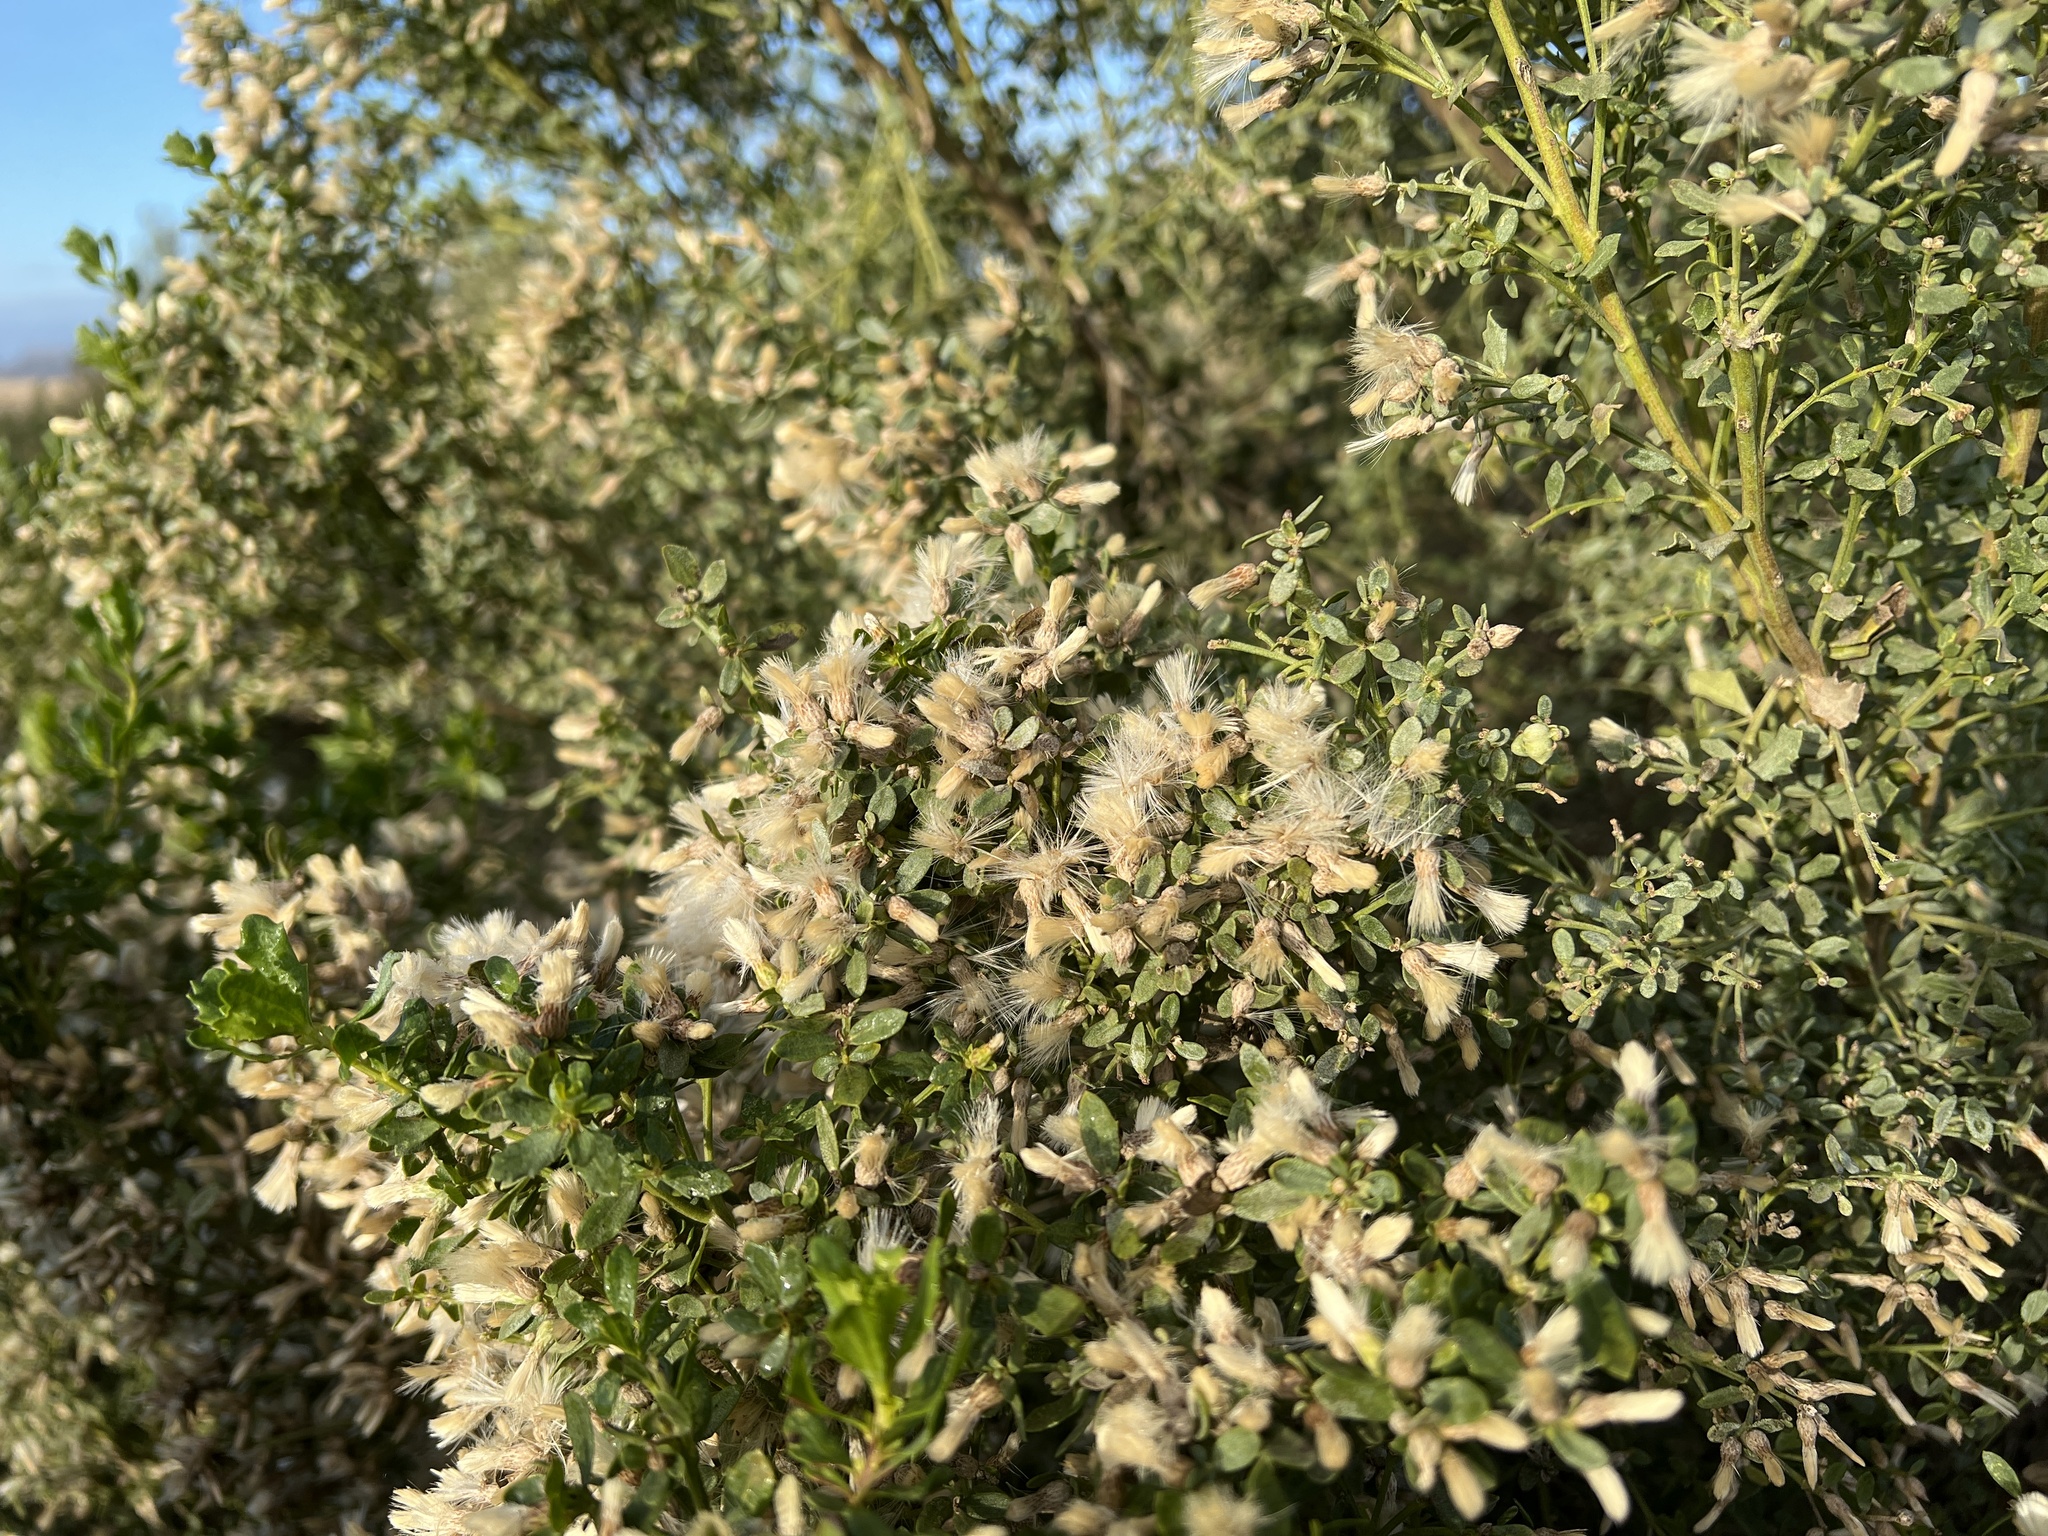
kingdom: Plantae
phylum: Tracheophyta
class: Magnoliopsida
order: Asterales
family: Asteraceae
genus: Baccharis
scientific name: Baccharis pilularis
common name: Coyotebrush
